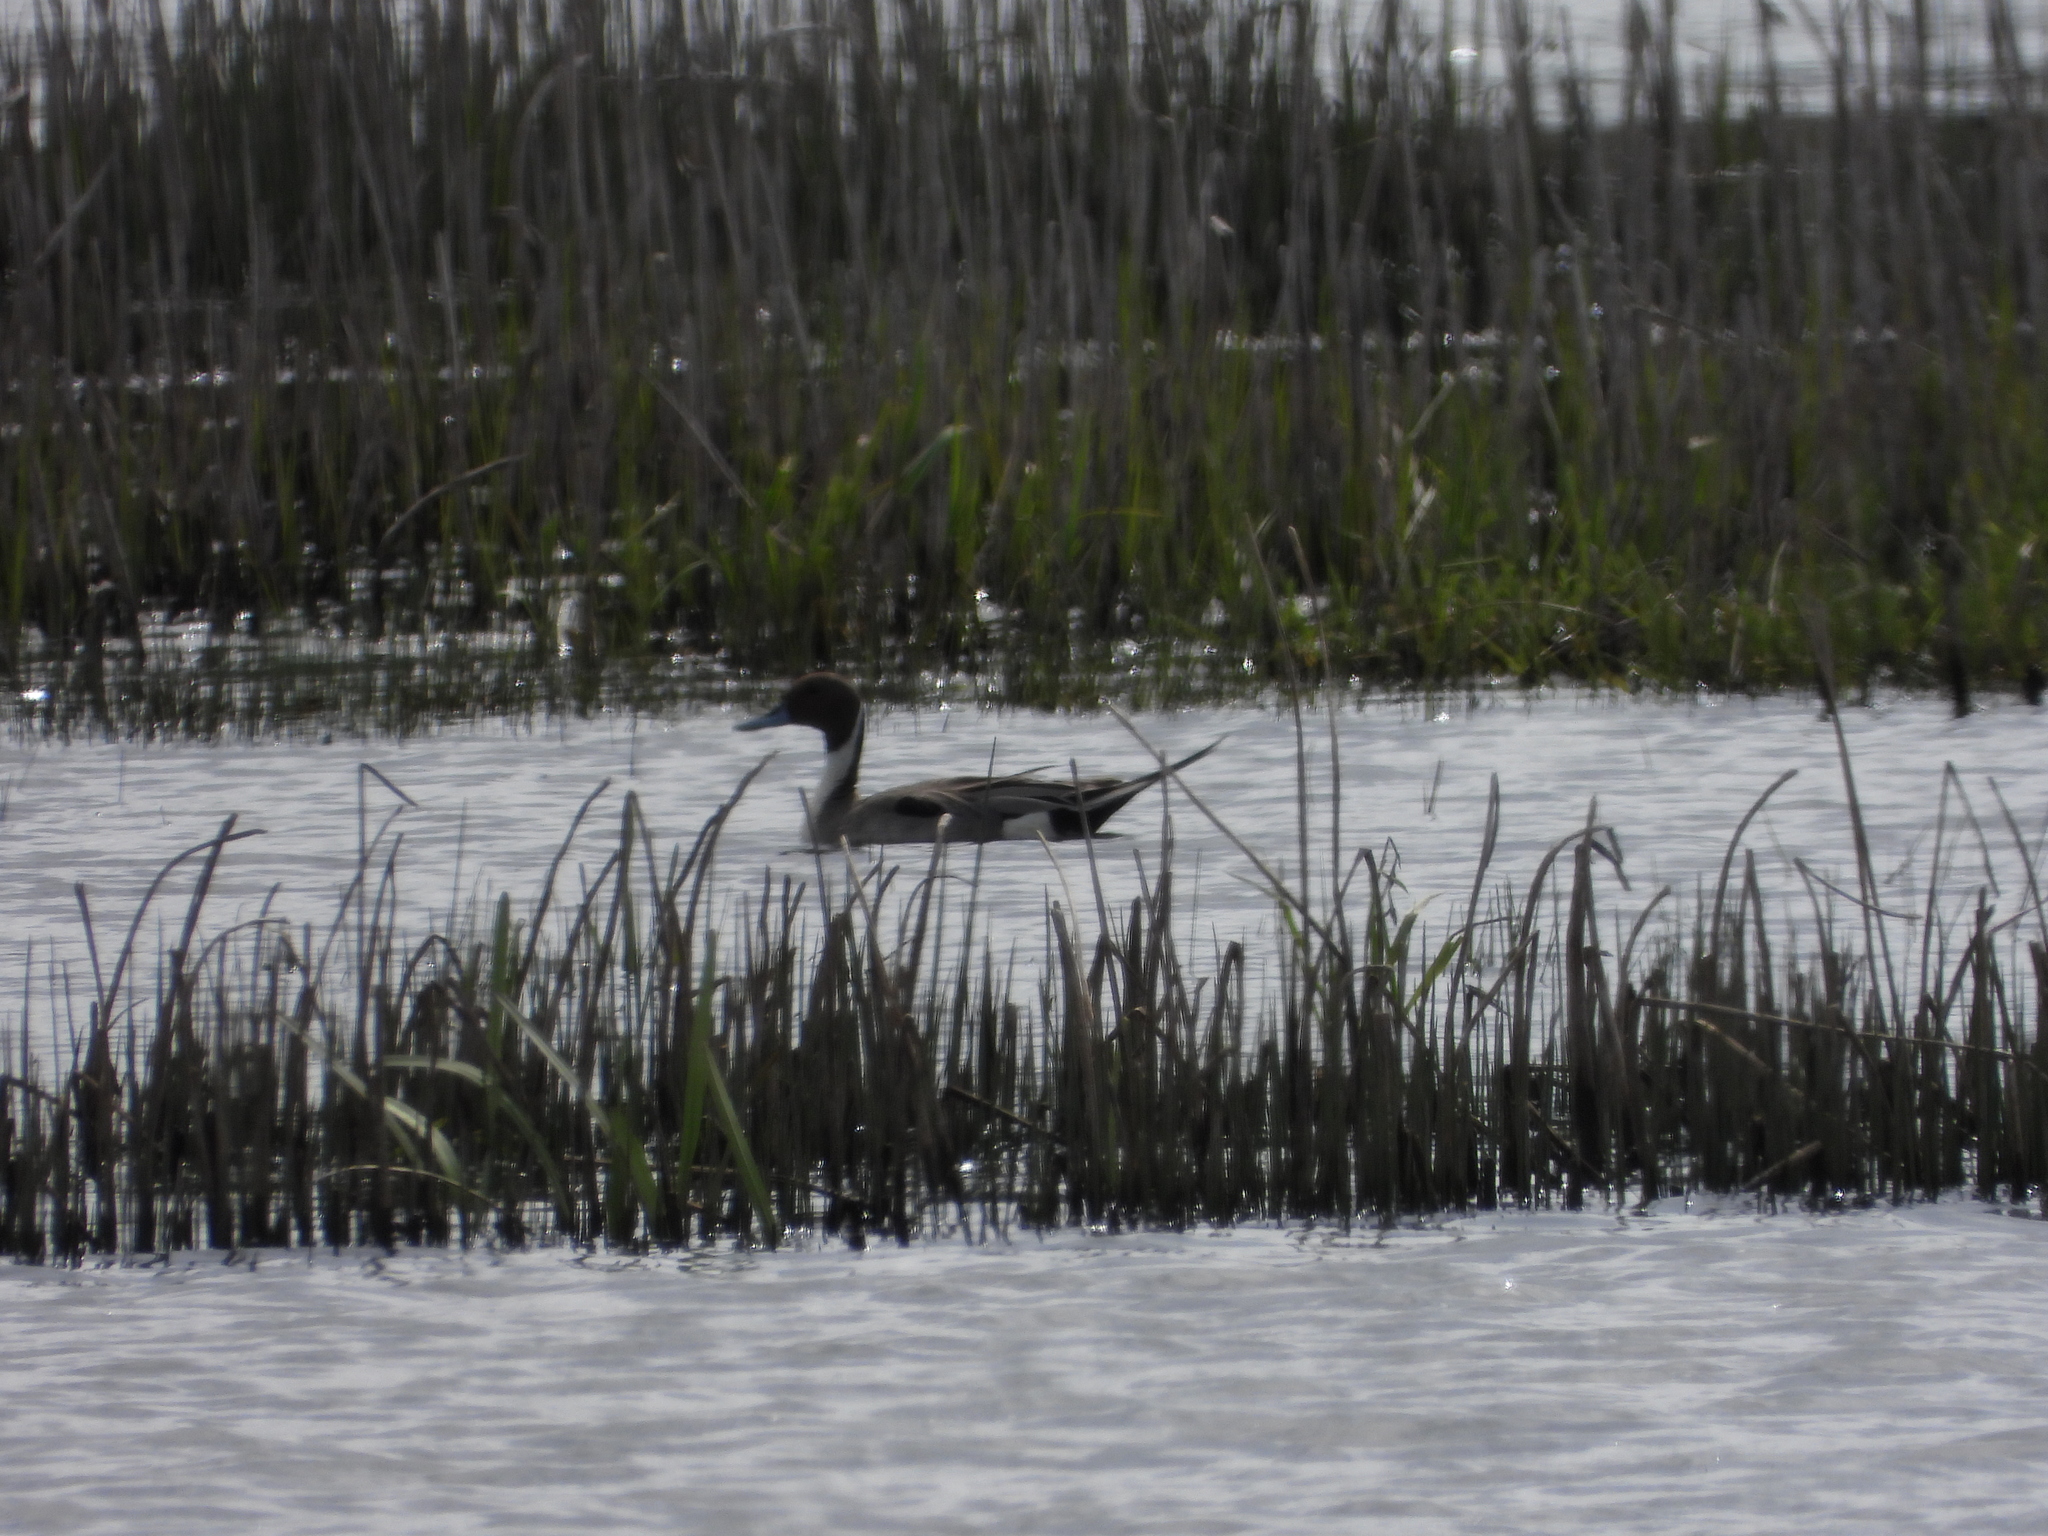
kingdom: Animalia
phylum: Chordata
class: Aves
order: Anseriformes
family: Anatidae
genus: Anas
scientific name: Anas acuta
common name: Northern pintail
